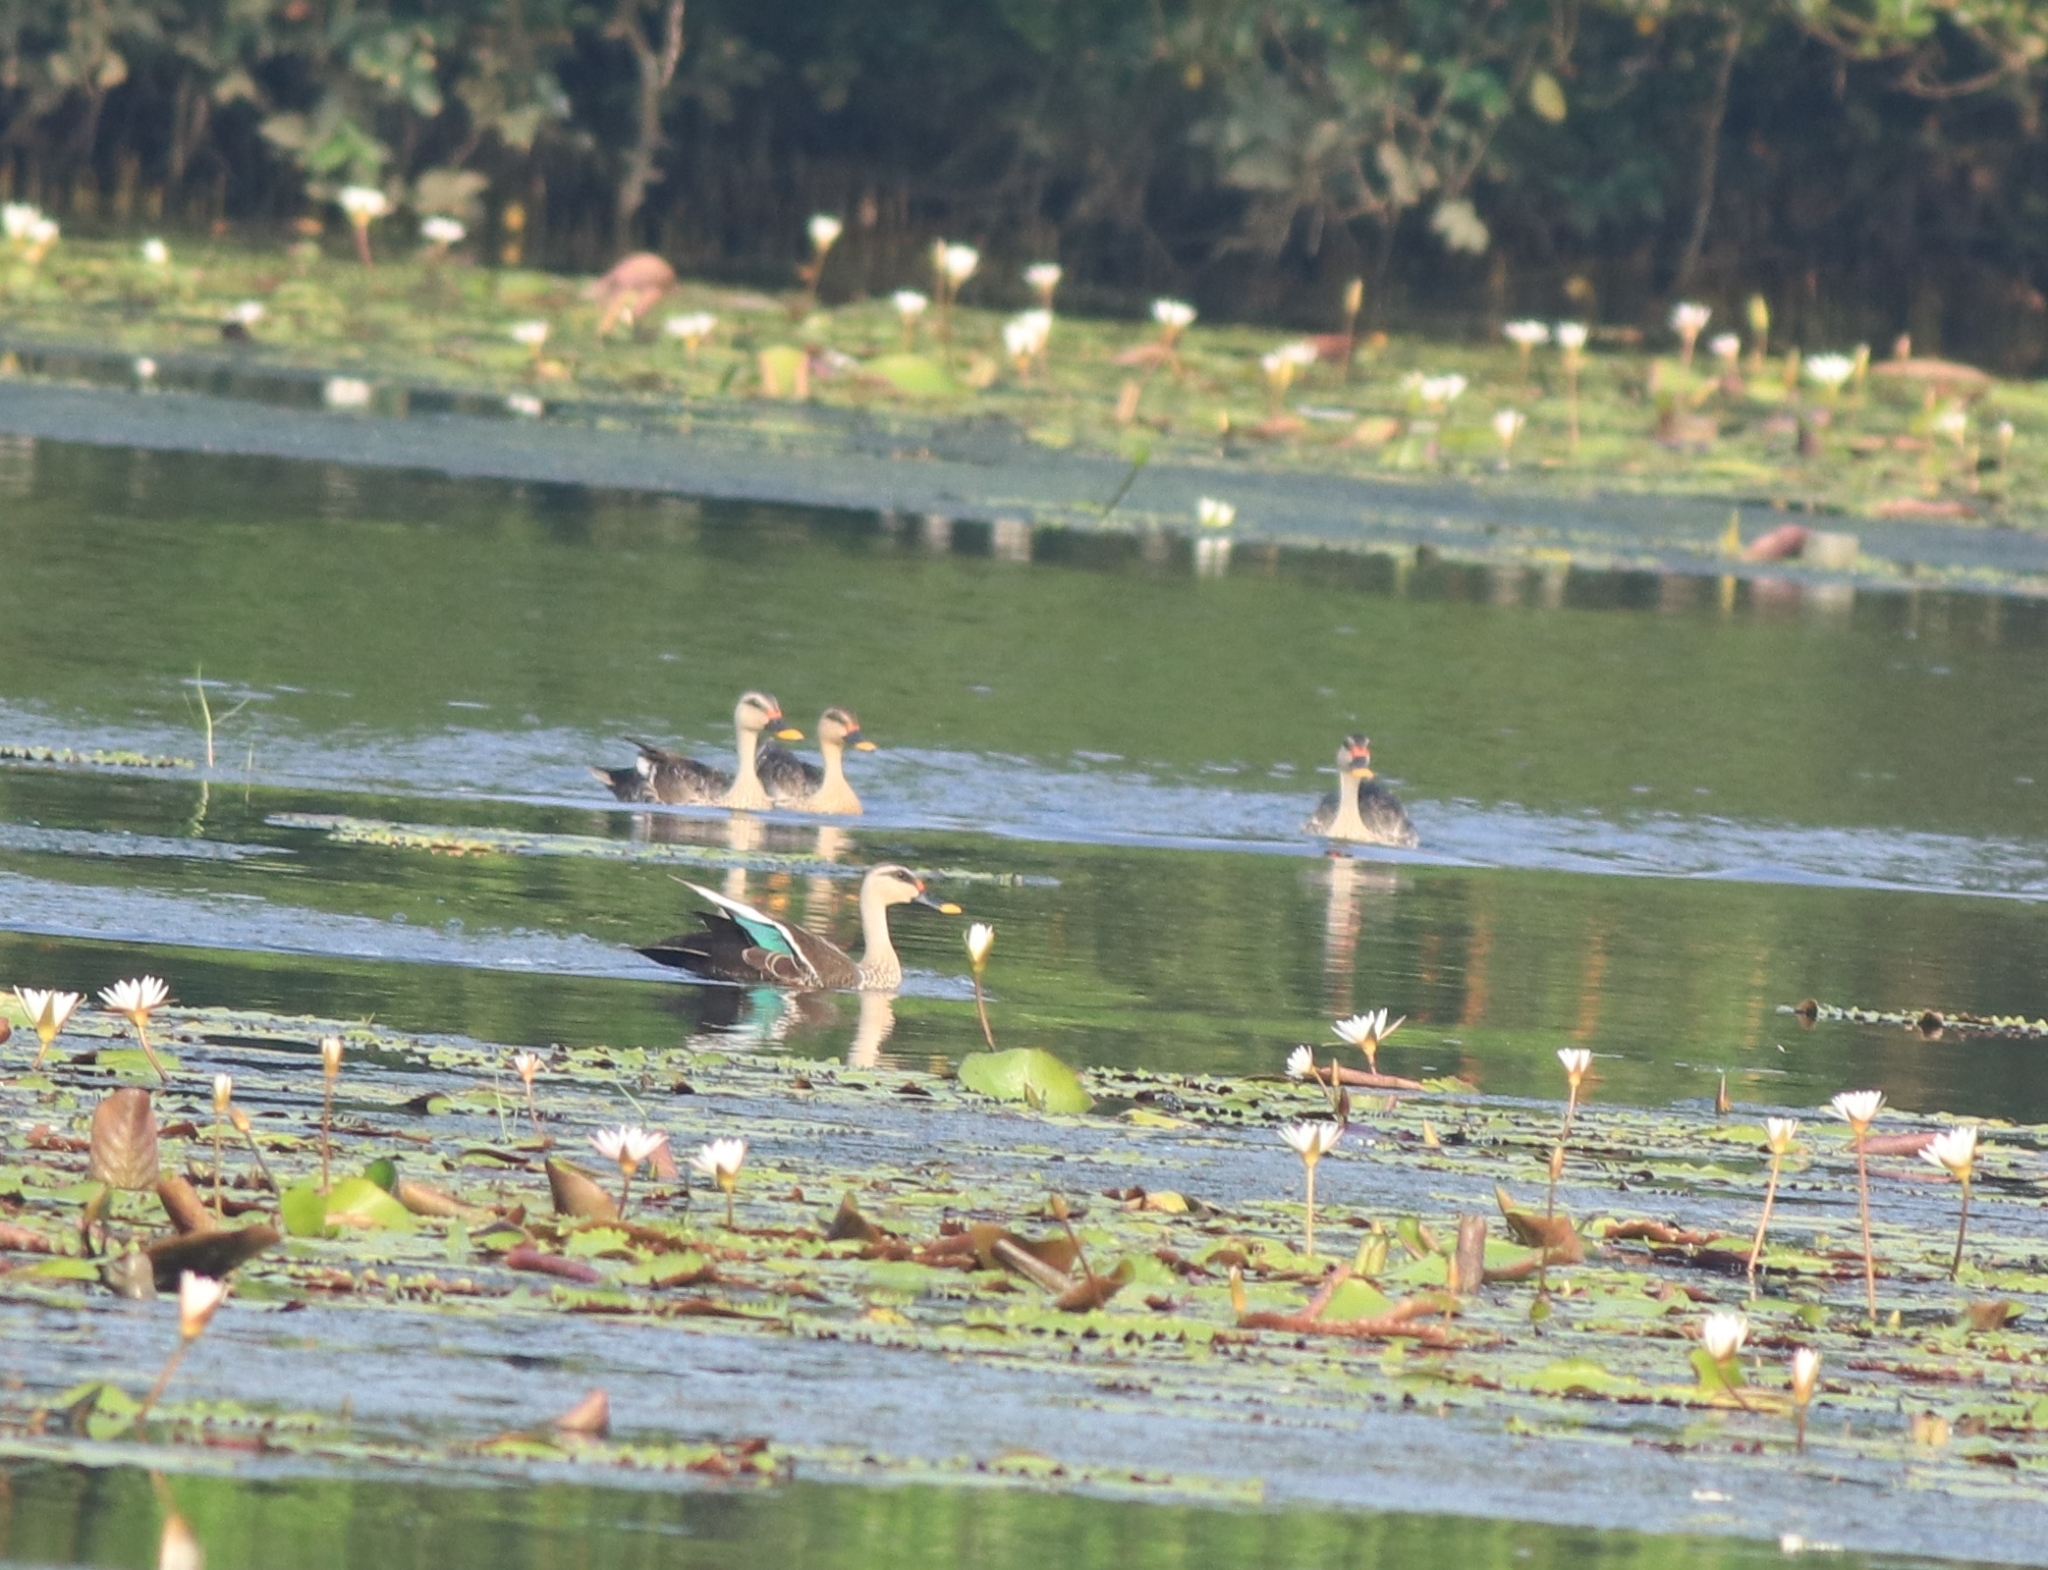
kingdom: Animalia
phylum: Chordata
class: Aves
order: Anseriformes
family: Anatidae
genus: Anas
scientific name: Anas poecilorhyncha
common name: Indian spot-billed duck
